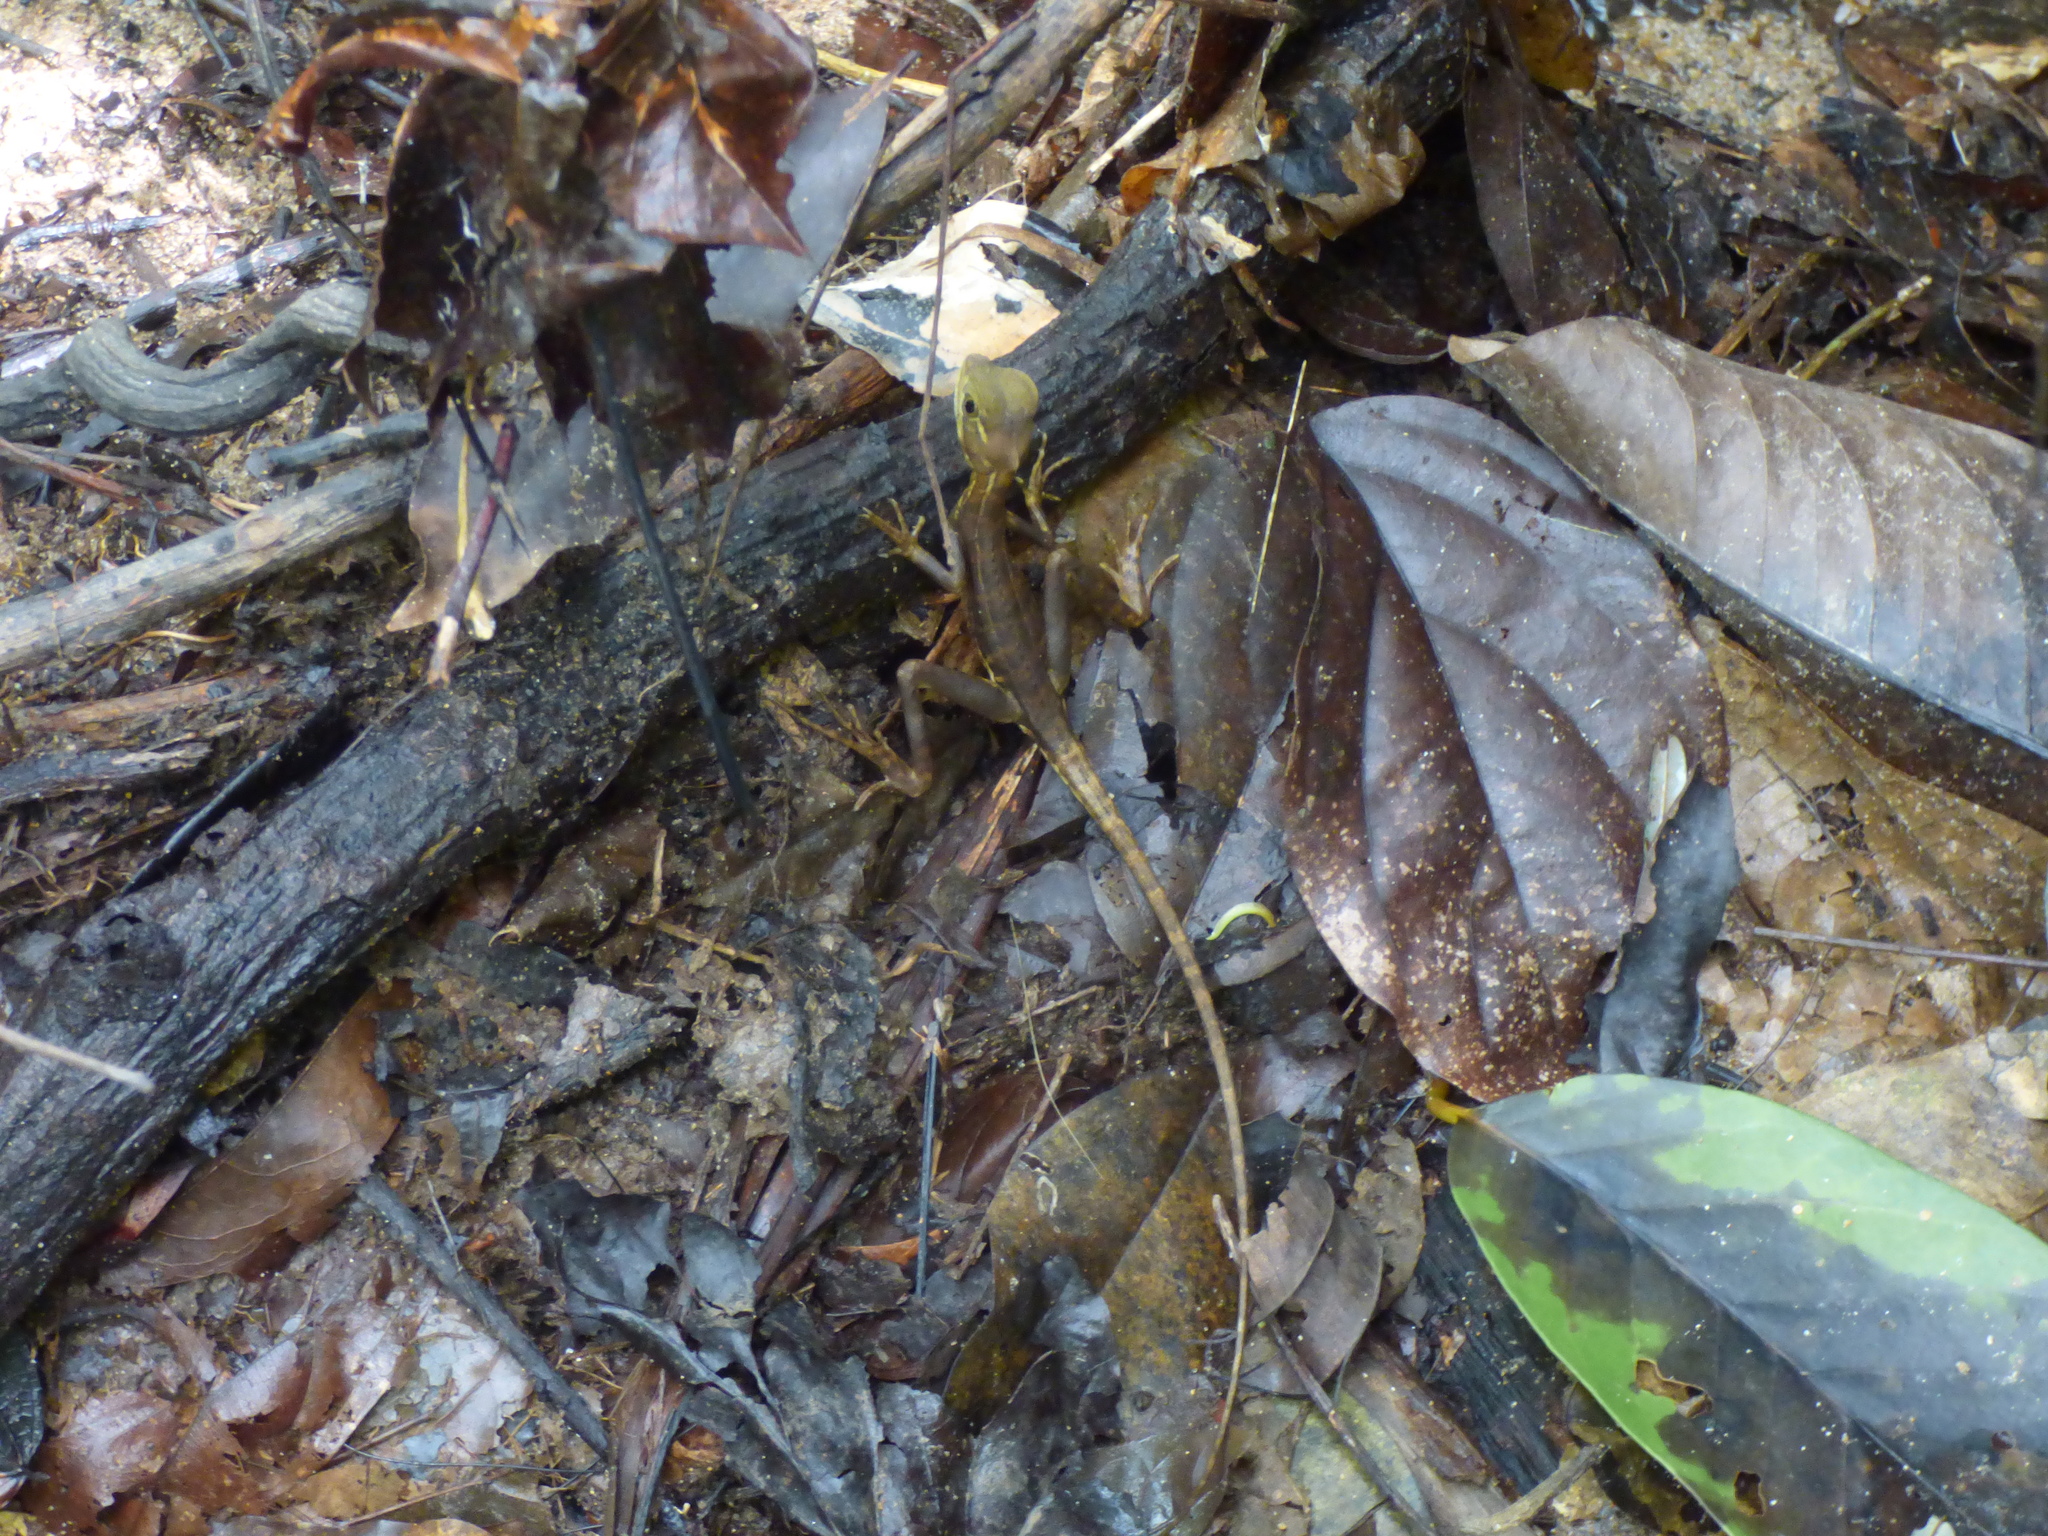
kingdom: Animalia
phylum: Chordata
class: Squamata
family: Corytophanidae
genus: Basiliscus
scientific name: Basiliscus galeritus
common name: Western basilisk
